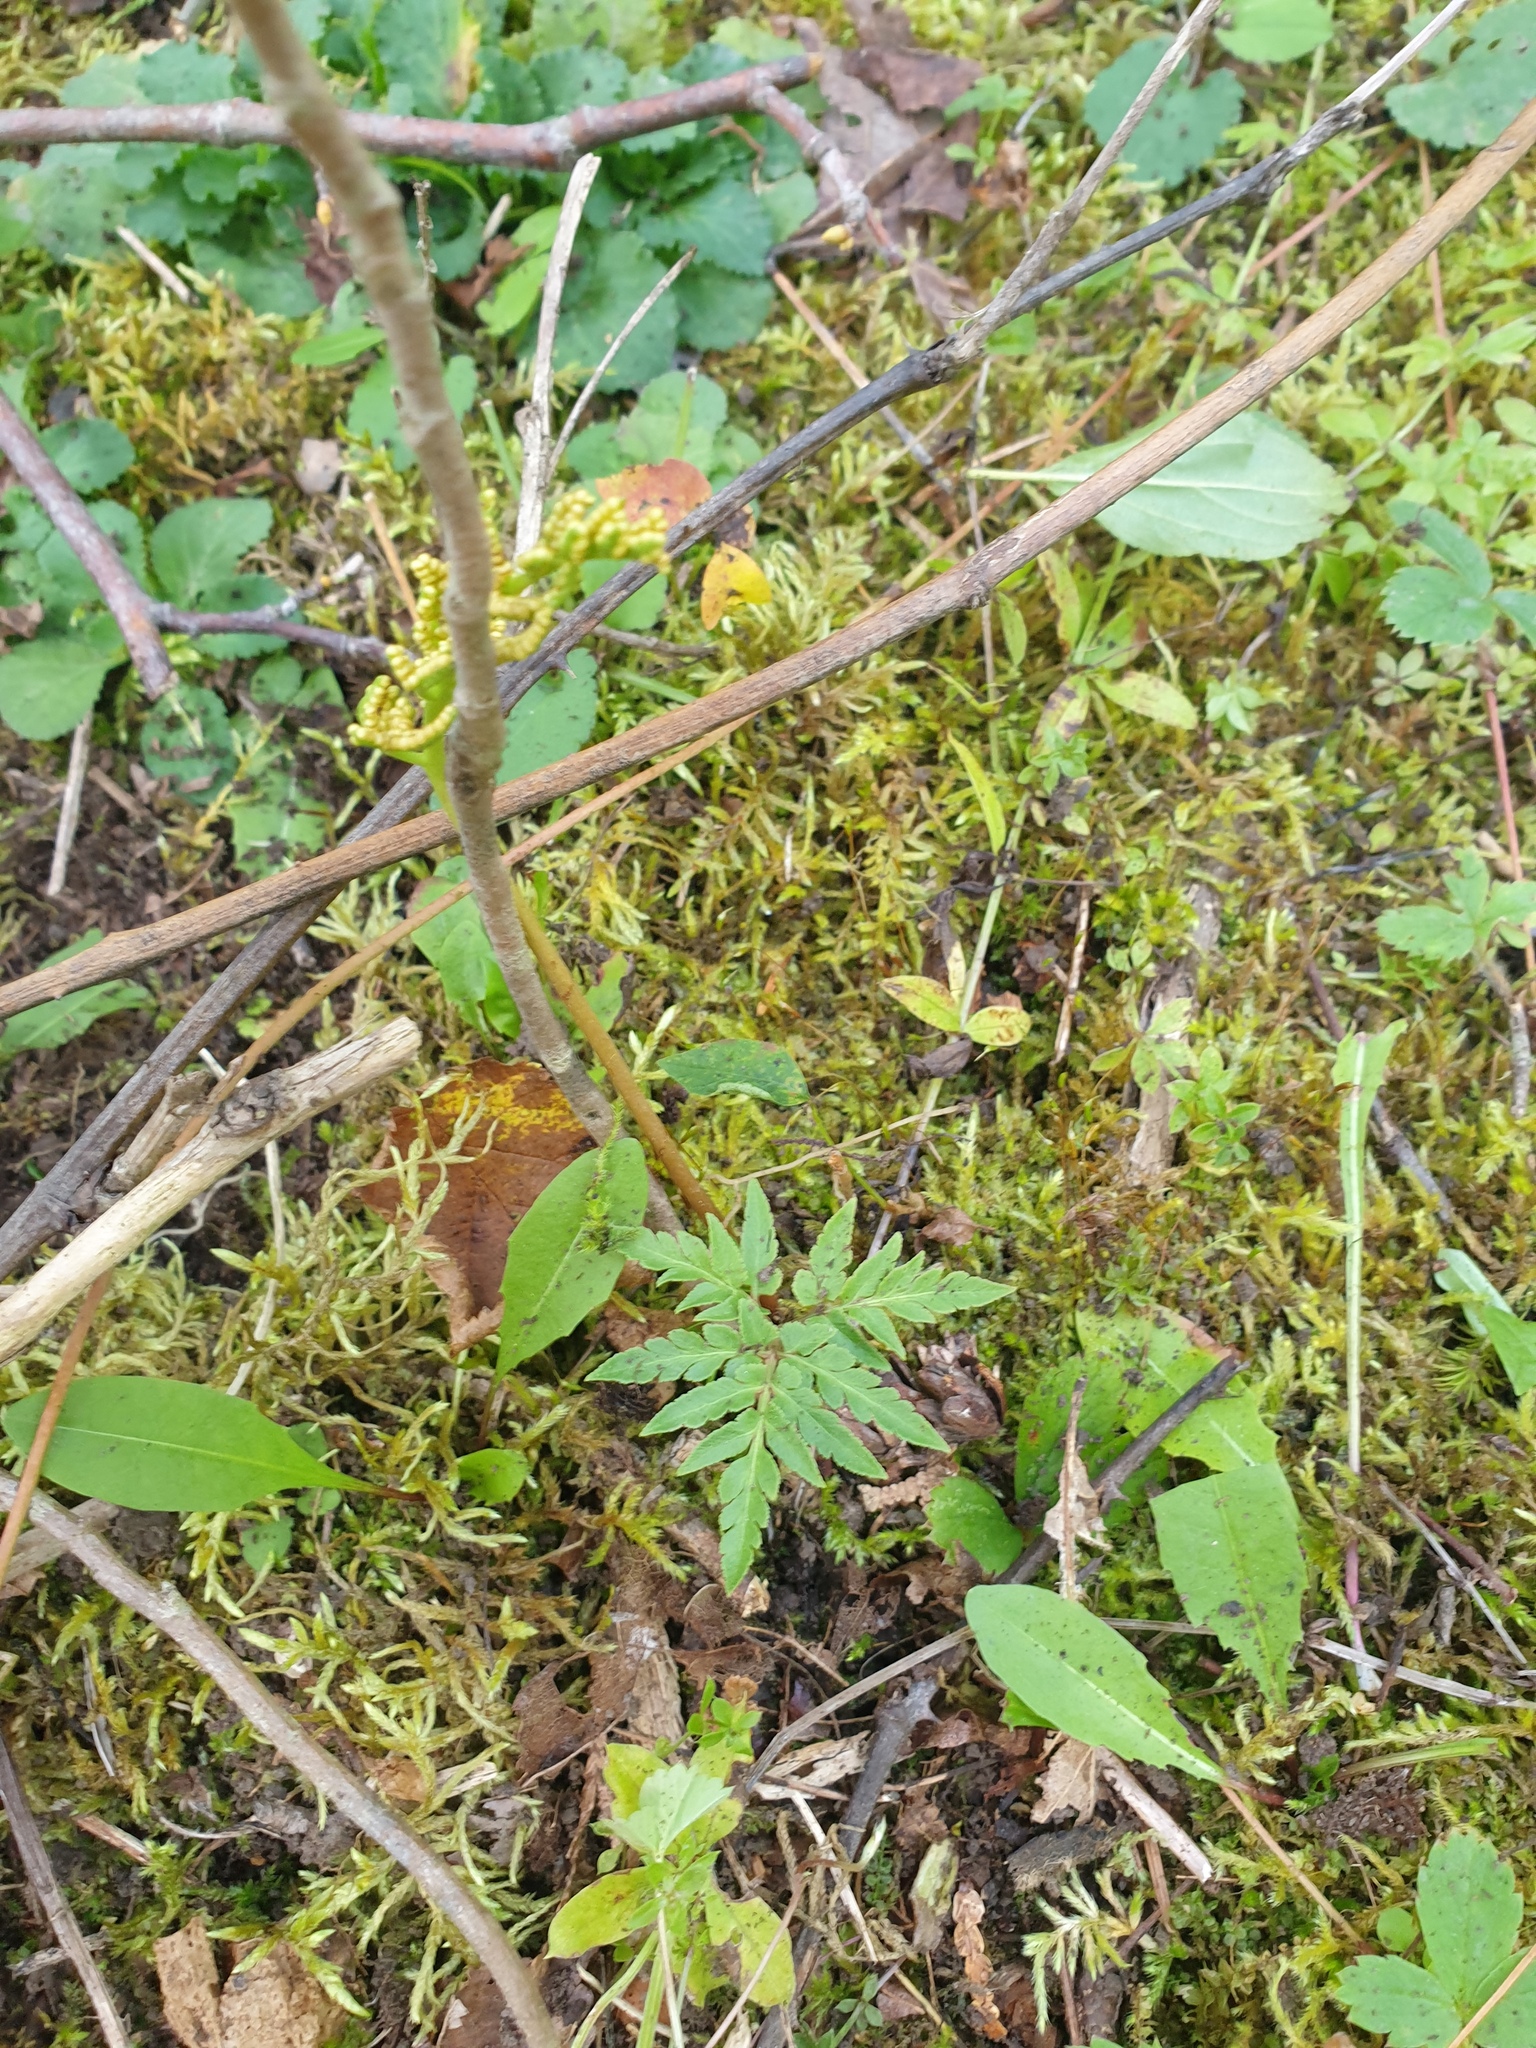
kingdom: Plantae
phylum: Tracheophyta
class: Polypodiopsida
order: Ophioglossales
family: Ophioglossaceae
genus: Sceptridium
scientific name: Sceptridium dissectum
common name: Cut-leaved grapefern
